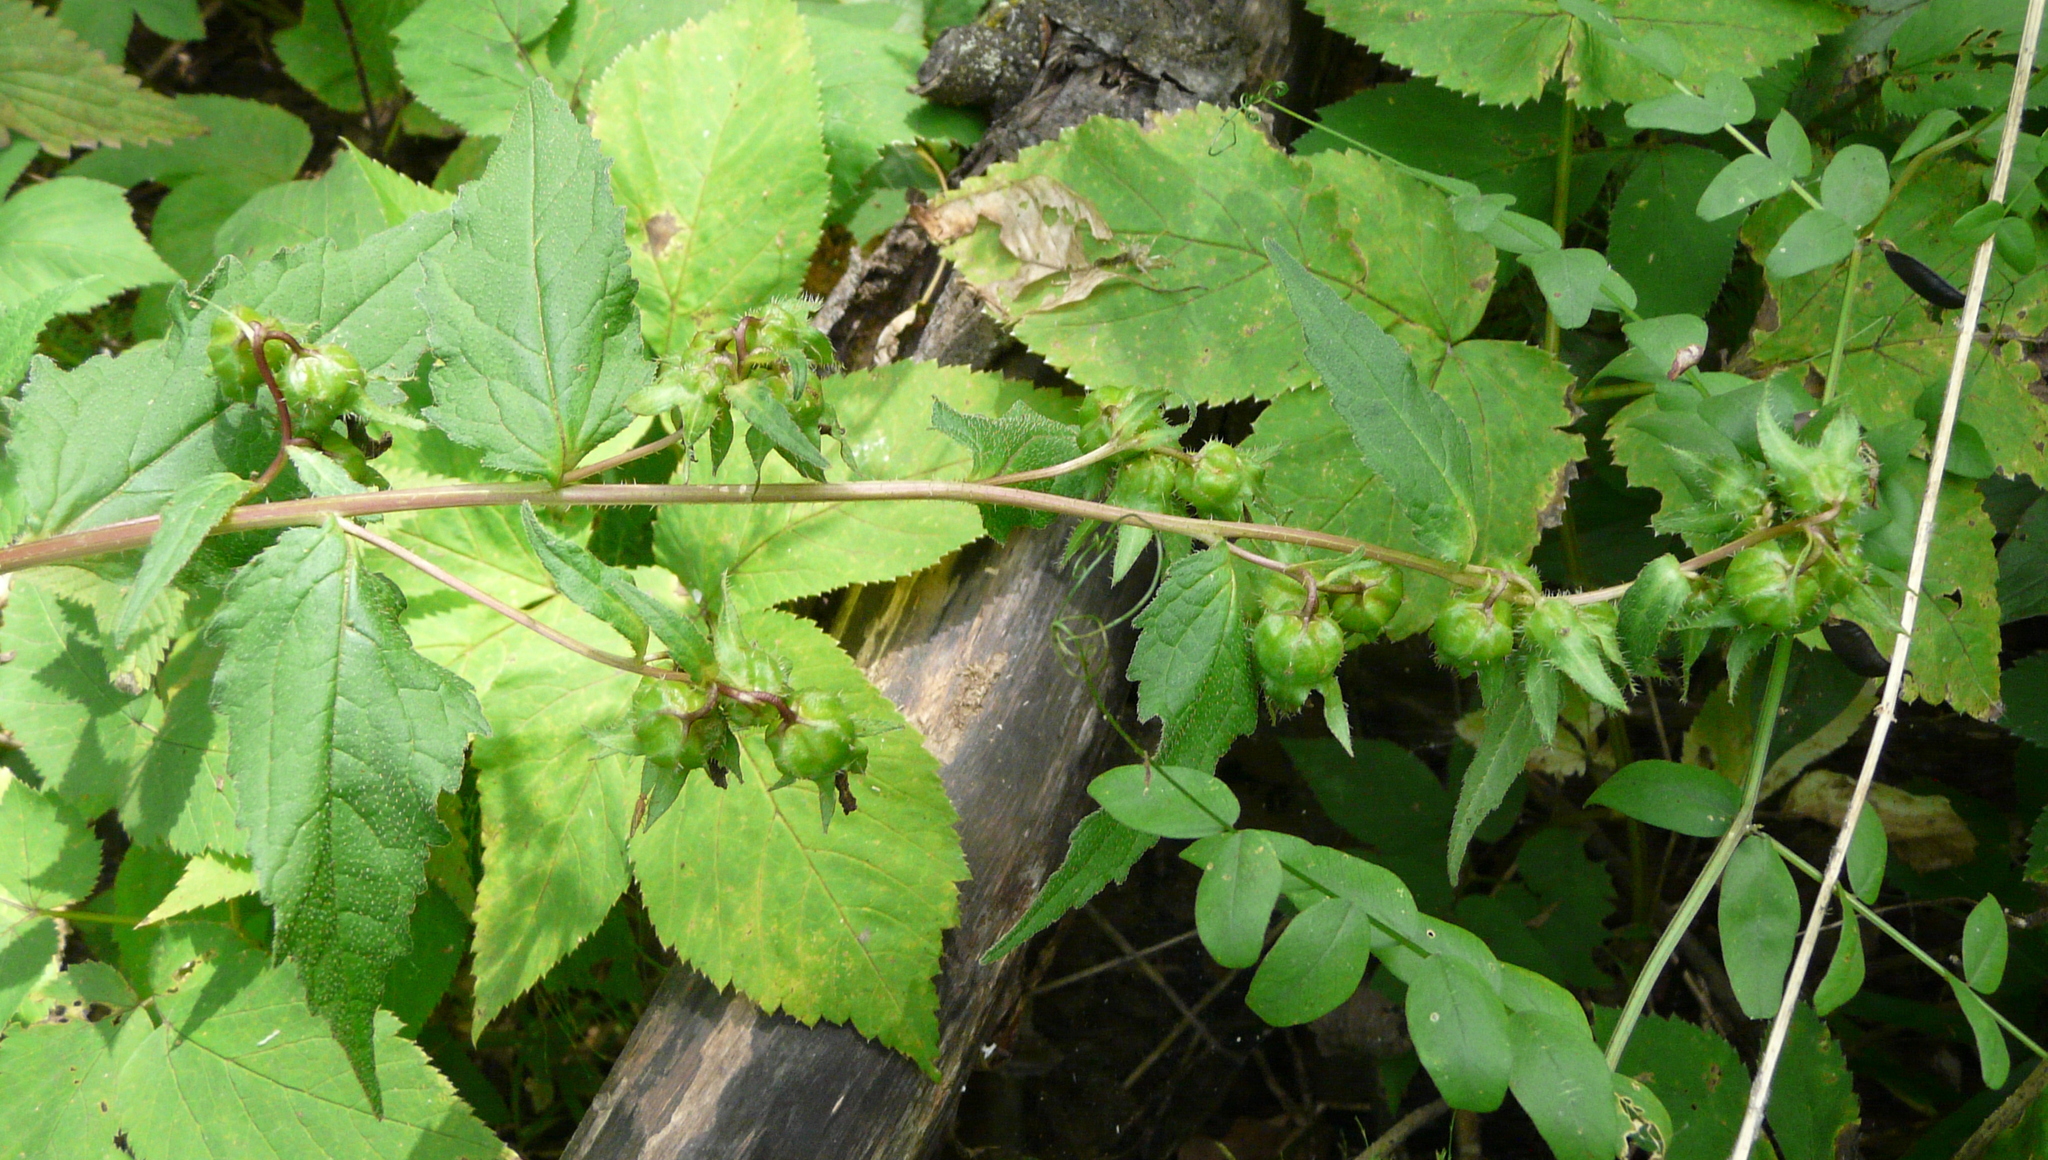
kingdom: Plantae
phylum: Tracheophyta
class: Magnoliopsida
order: Asterales
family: Campanulaceae
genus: Campanula
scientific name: Campanula trachelium
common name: Nettle-leaved bellflower
